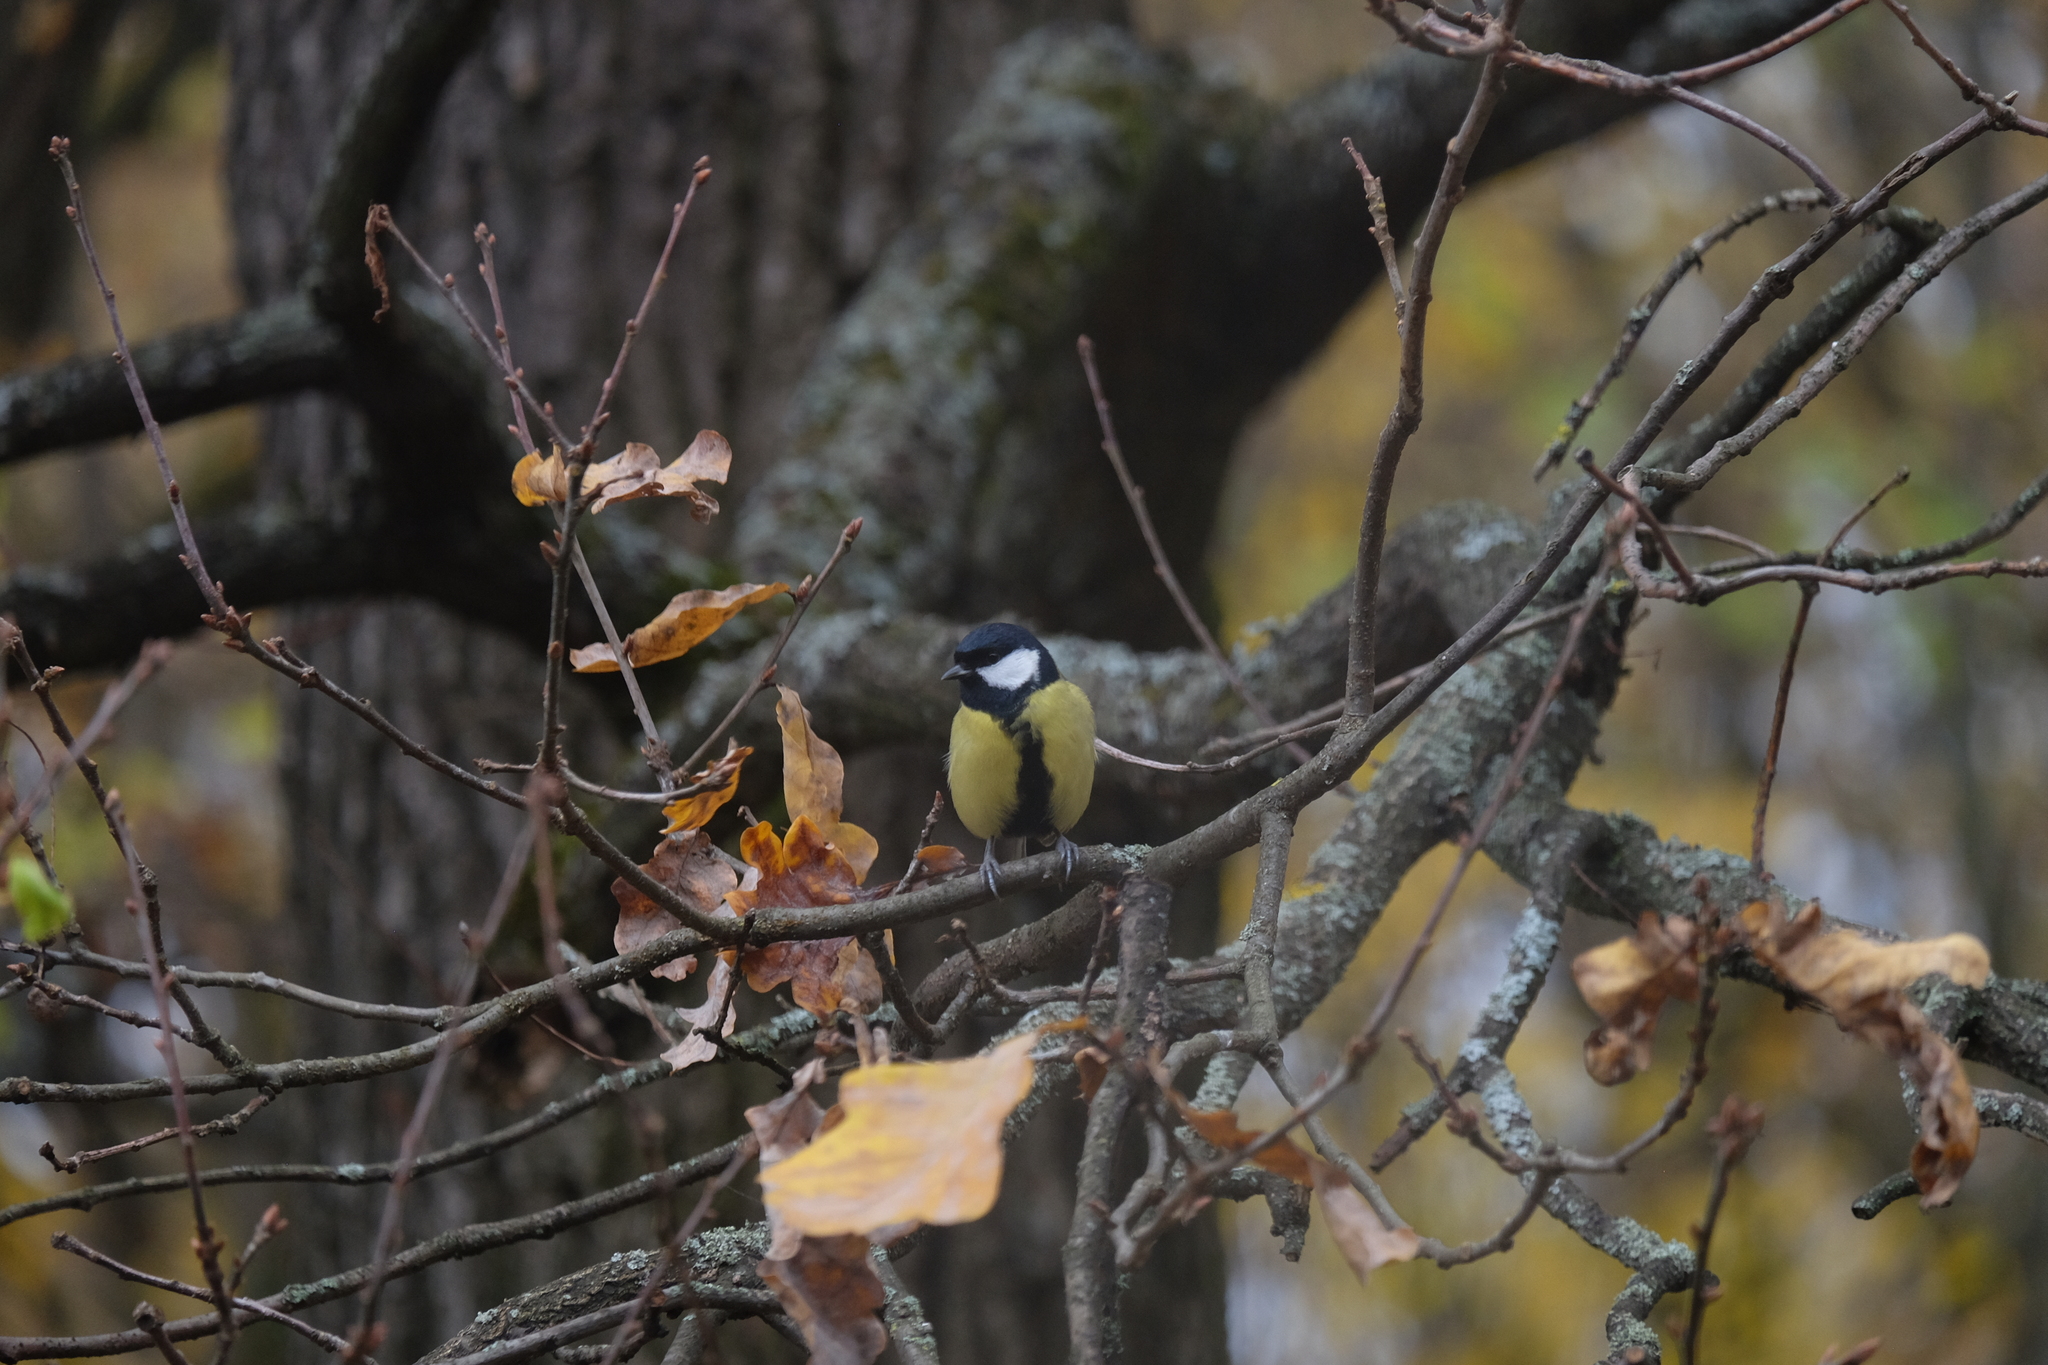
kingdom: Animalia
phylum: Chordata
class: Aves
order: Passeriformes
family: Paridae
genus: Parus
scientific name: Parus major
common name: Great tit
